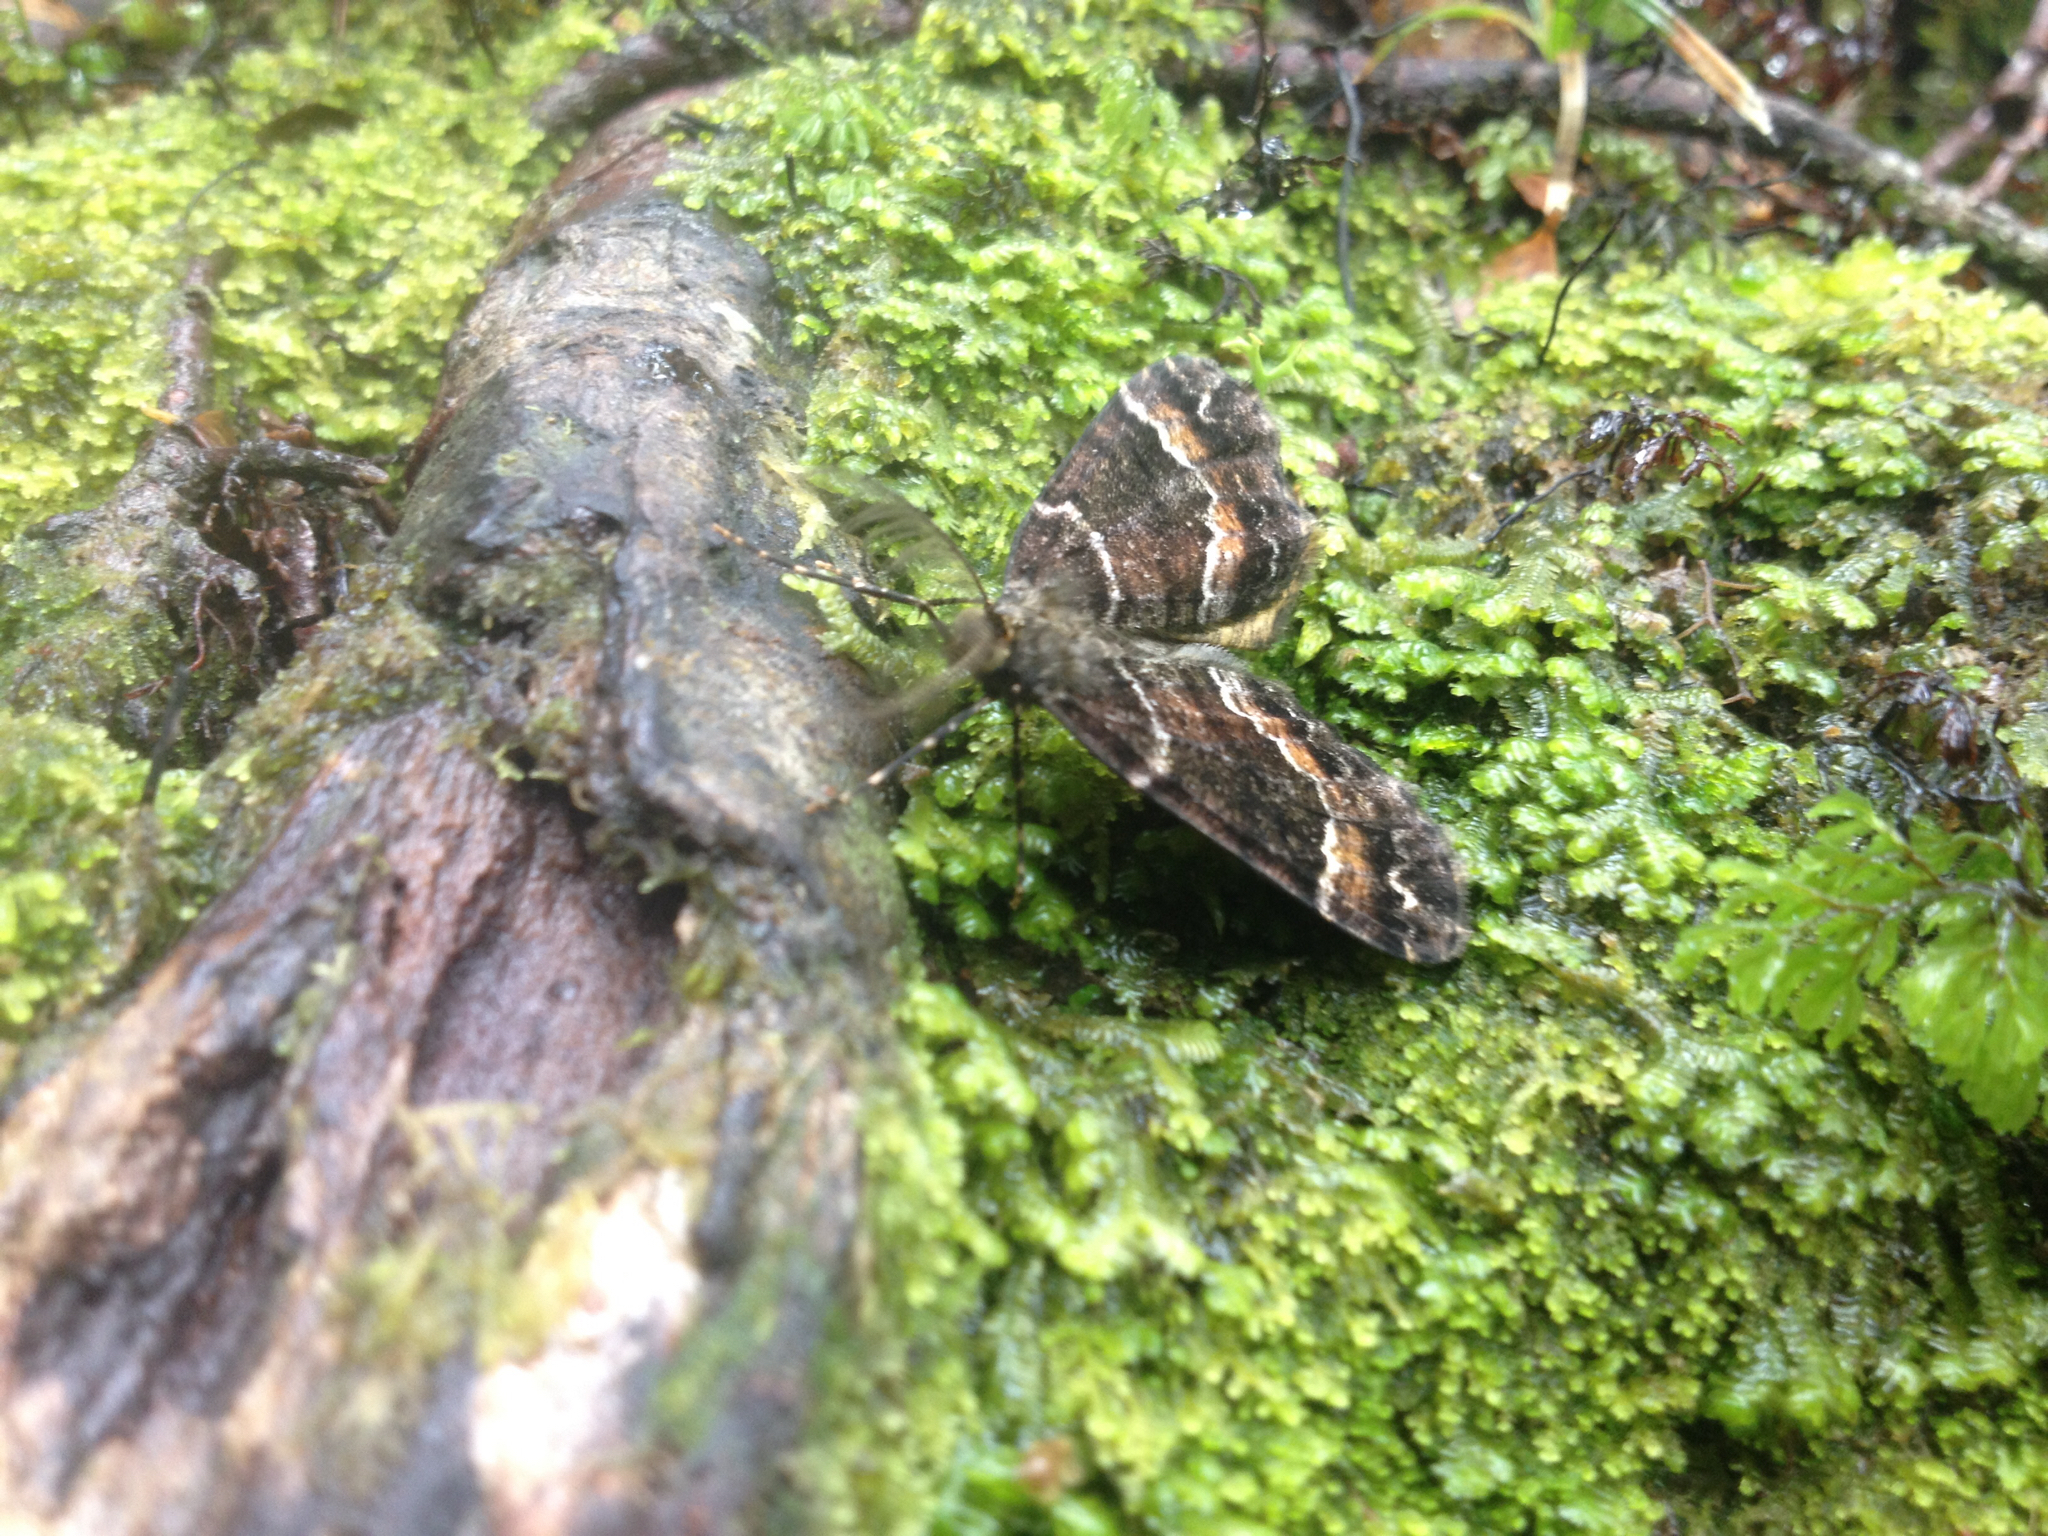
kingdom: Animalia
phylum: Arthropoda
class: Insecta
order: Lepidoptera
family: Geometridae
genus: Pseudocoremia
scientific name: Pseudocoremia productata
